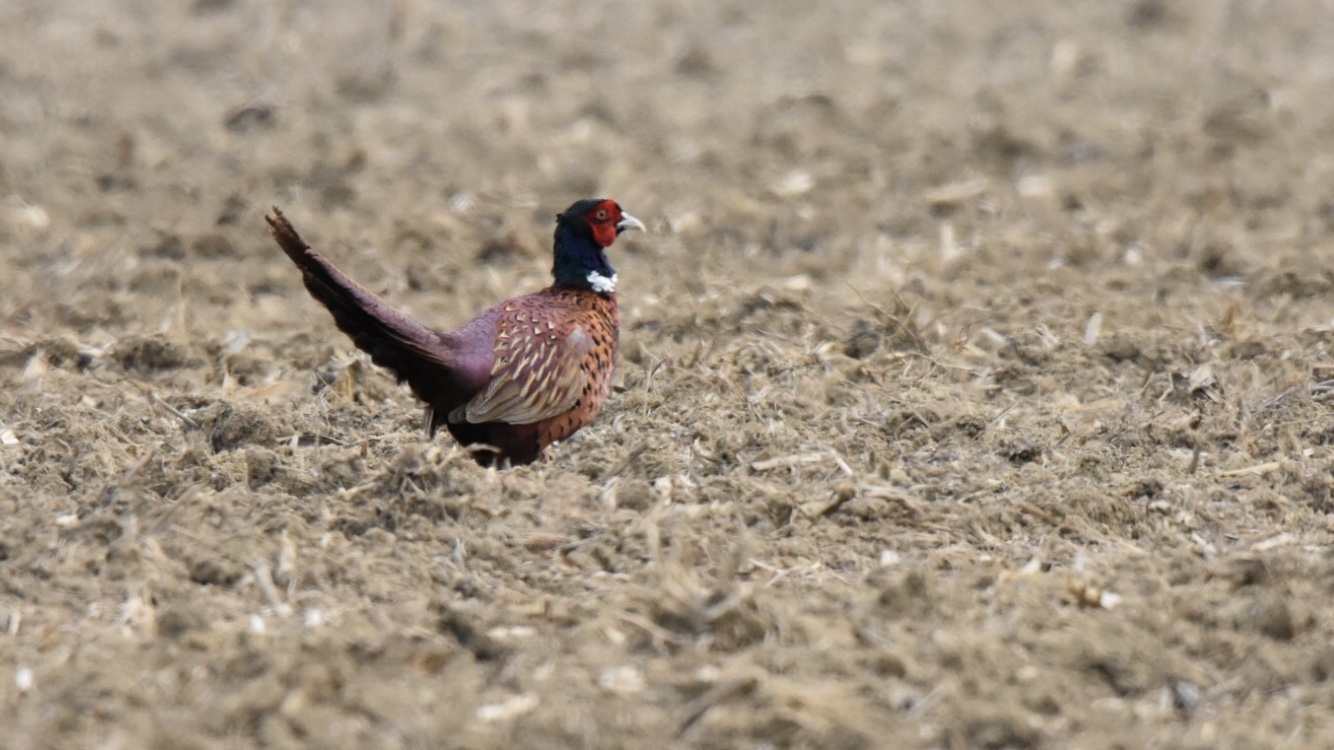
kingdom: Animalia
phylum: Chordata
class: Aves
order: Galliformes
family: Phasianidae
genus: Phasianus
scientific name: Phasianus colchicus
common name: Common pheasant
